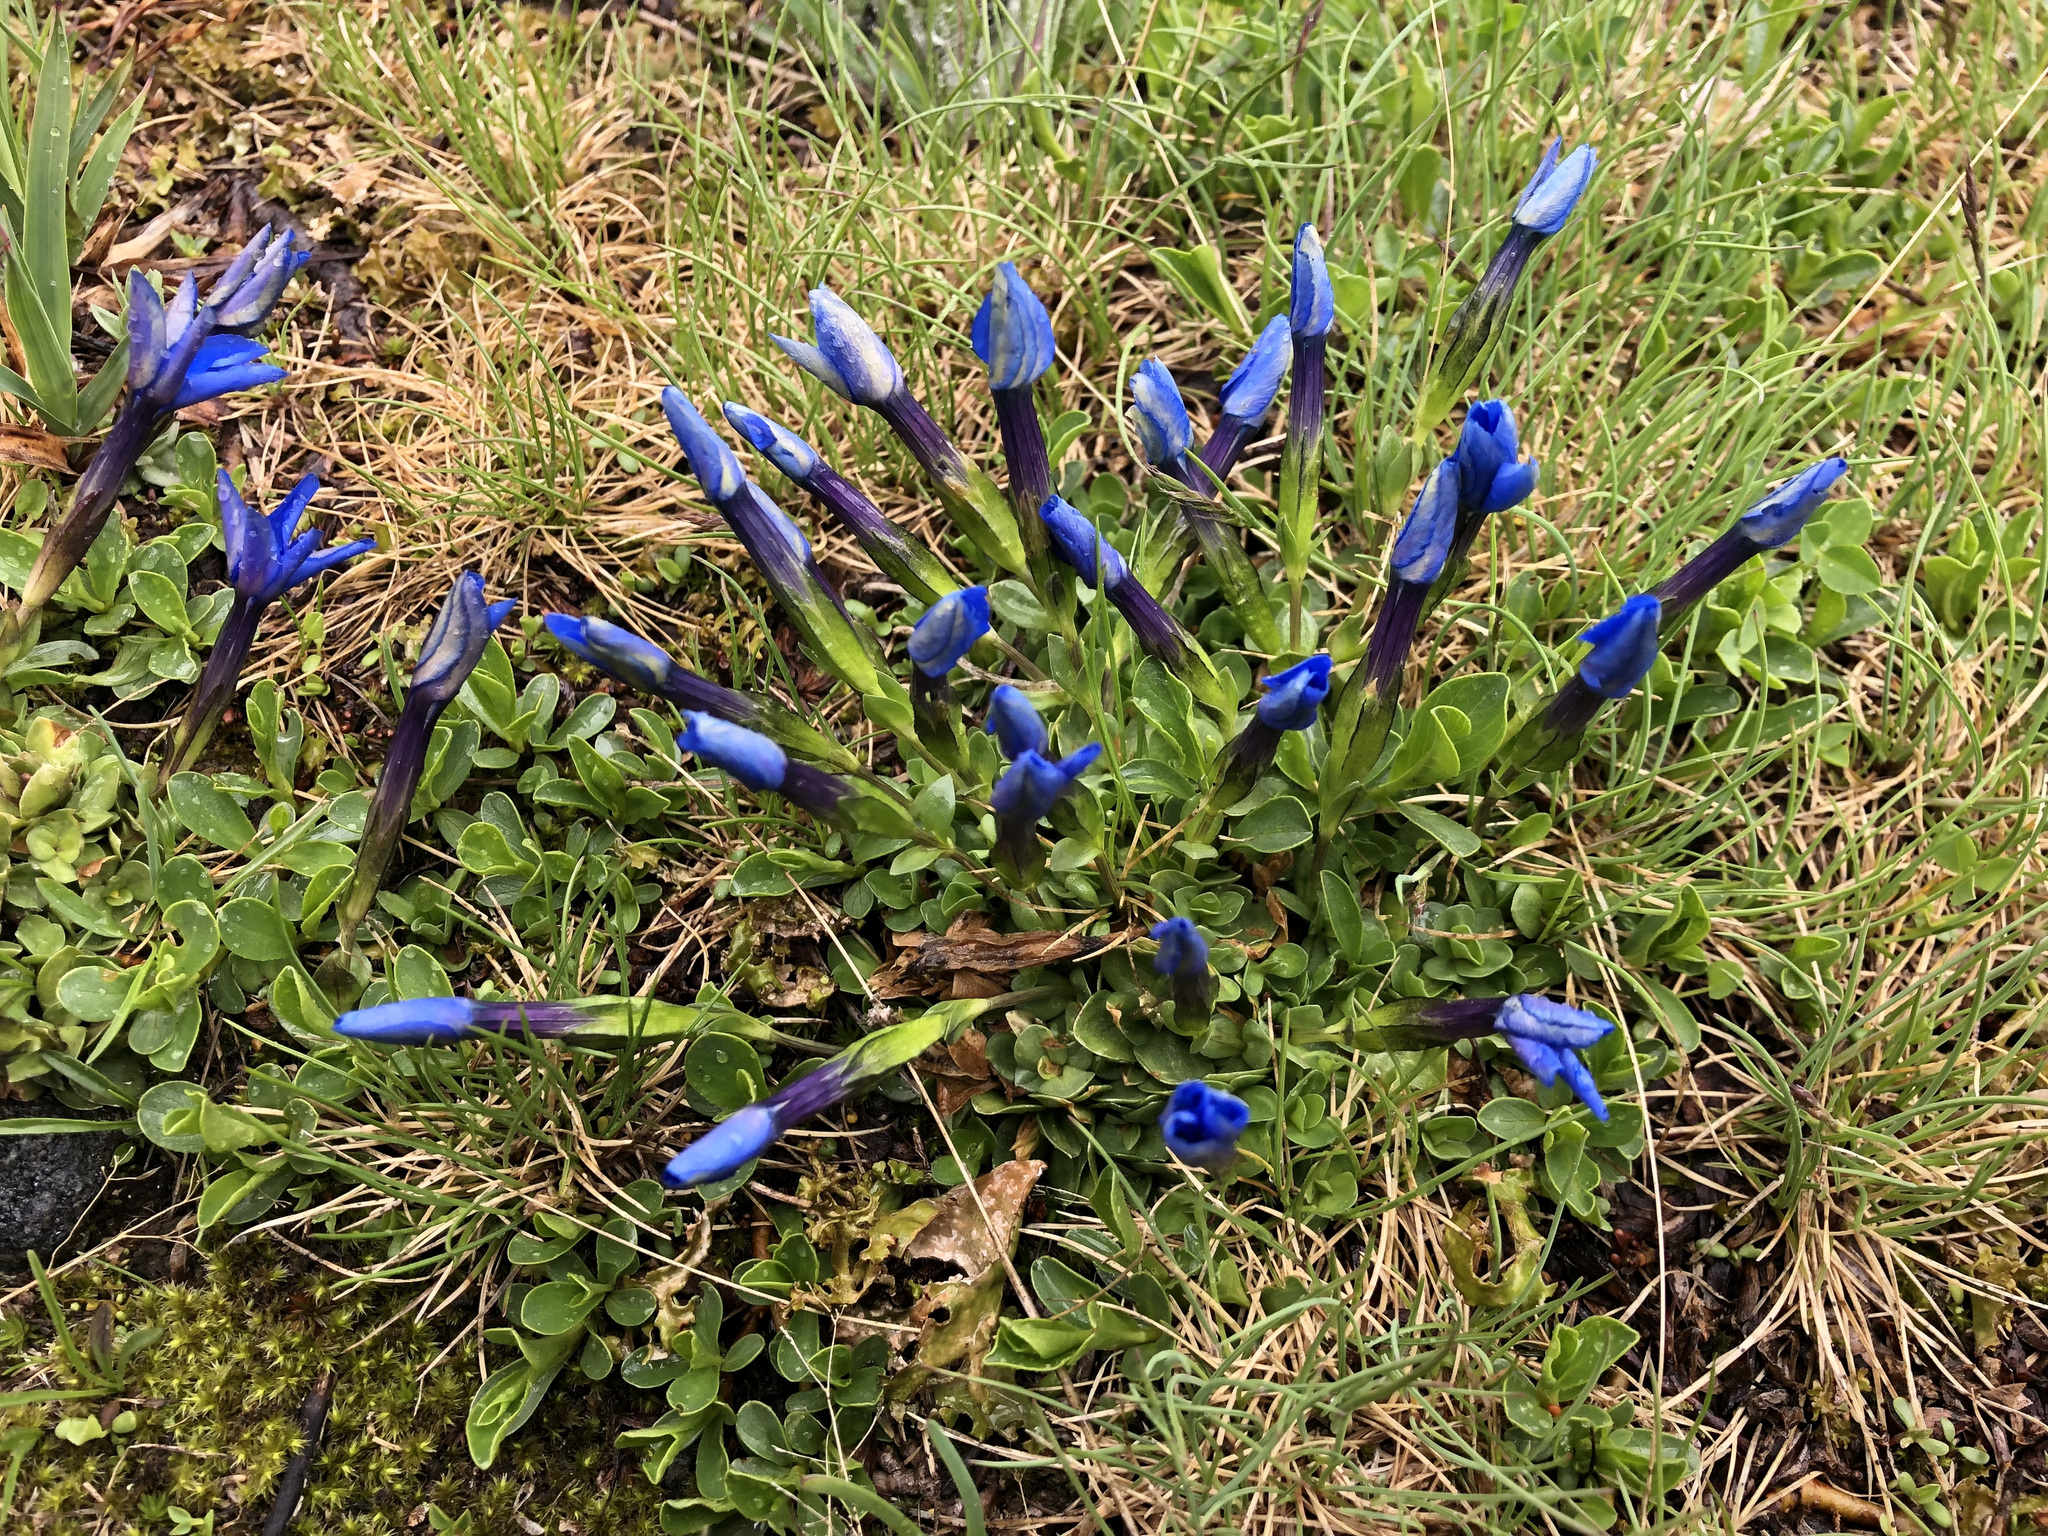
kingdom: Plantae
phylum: Tracheophyta
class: Magnoliopsida
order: Gentianales
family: Gentianaceae
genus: Gentiana
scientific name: Gentiana brachyphylla
